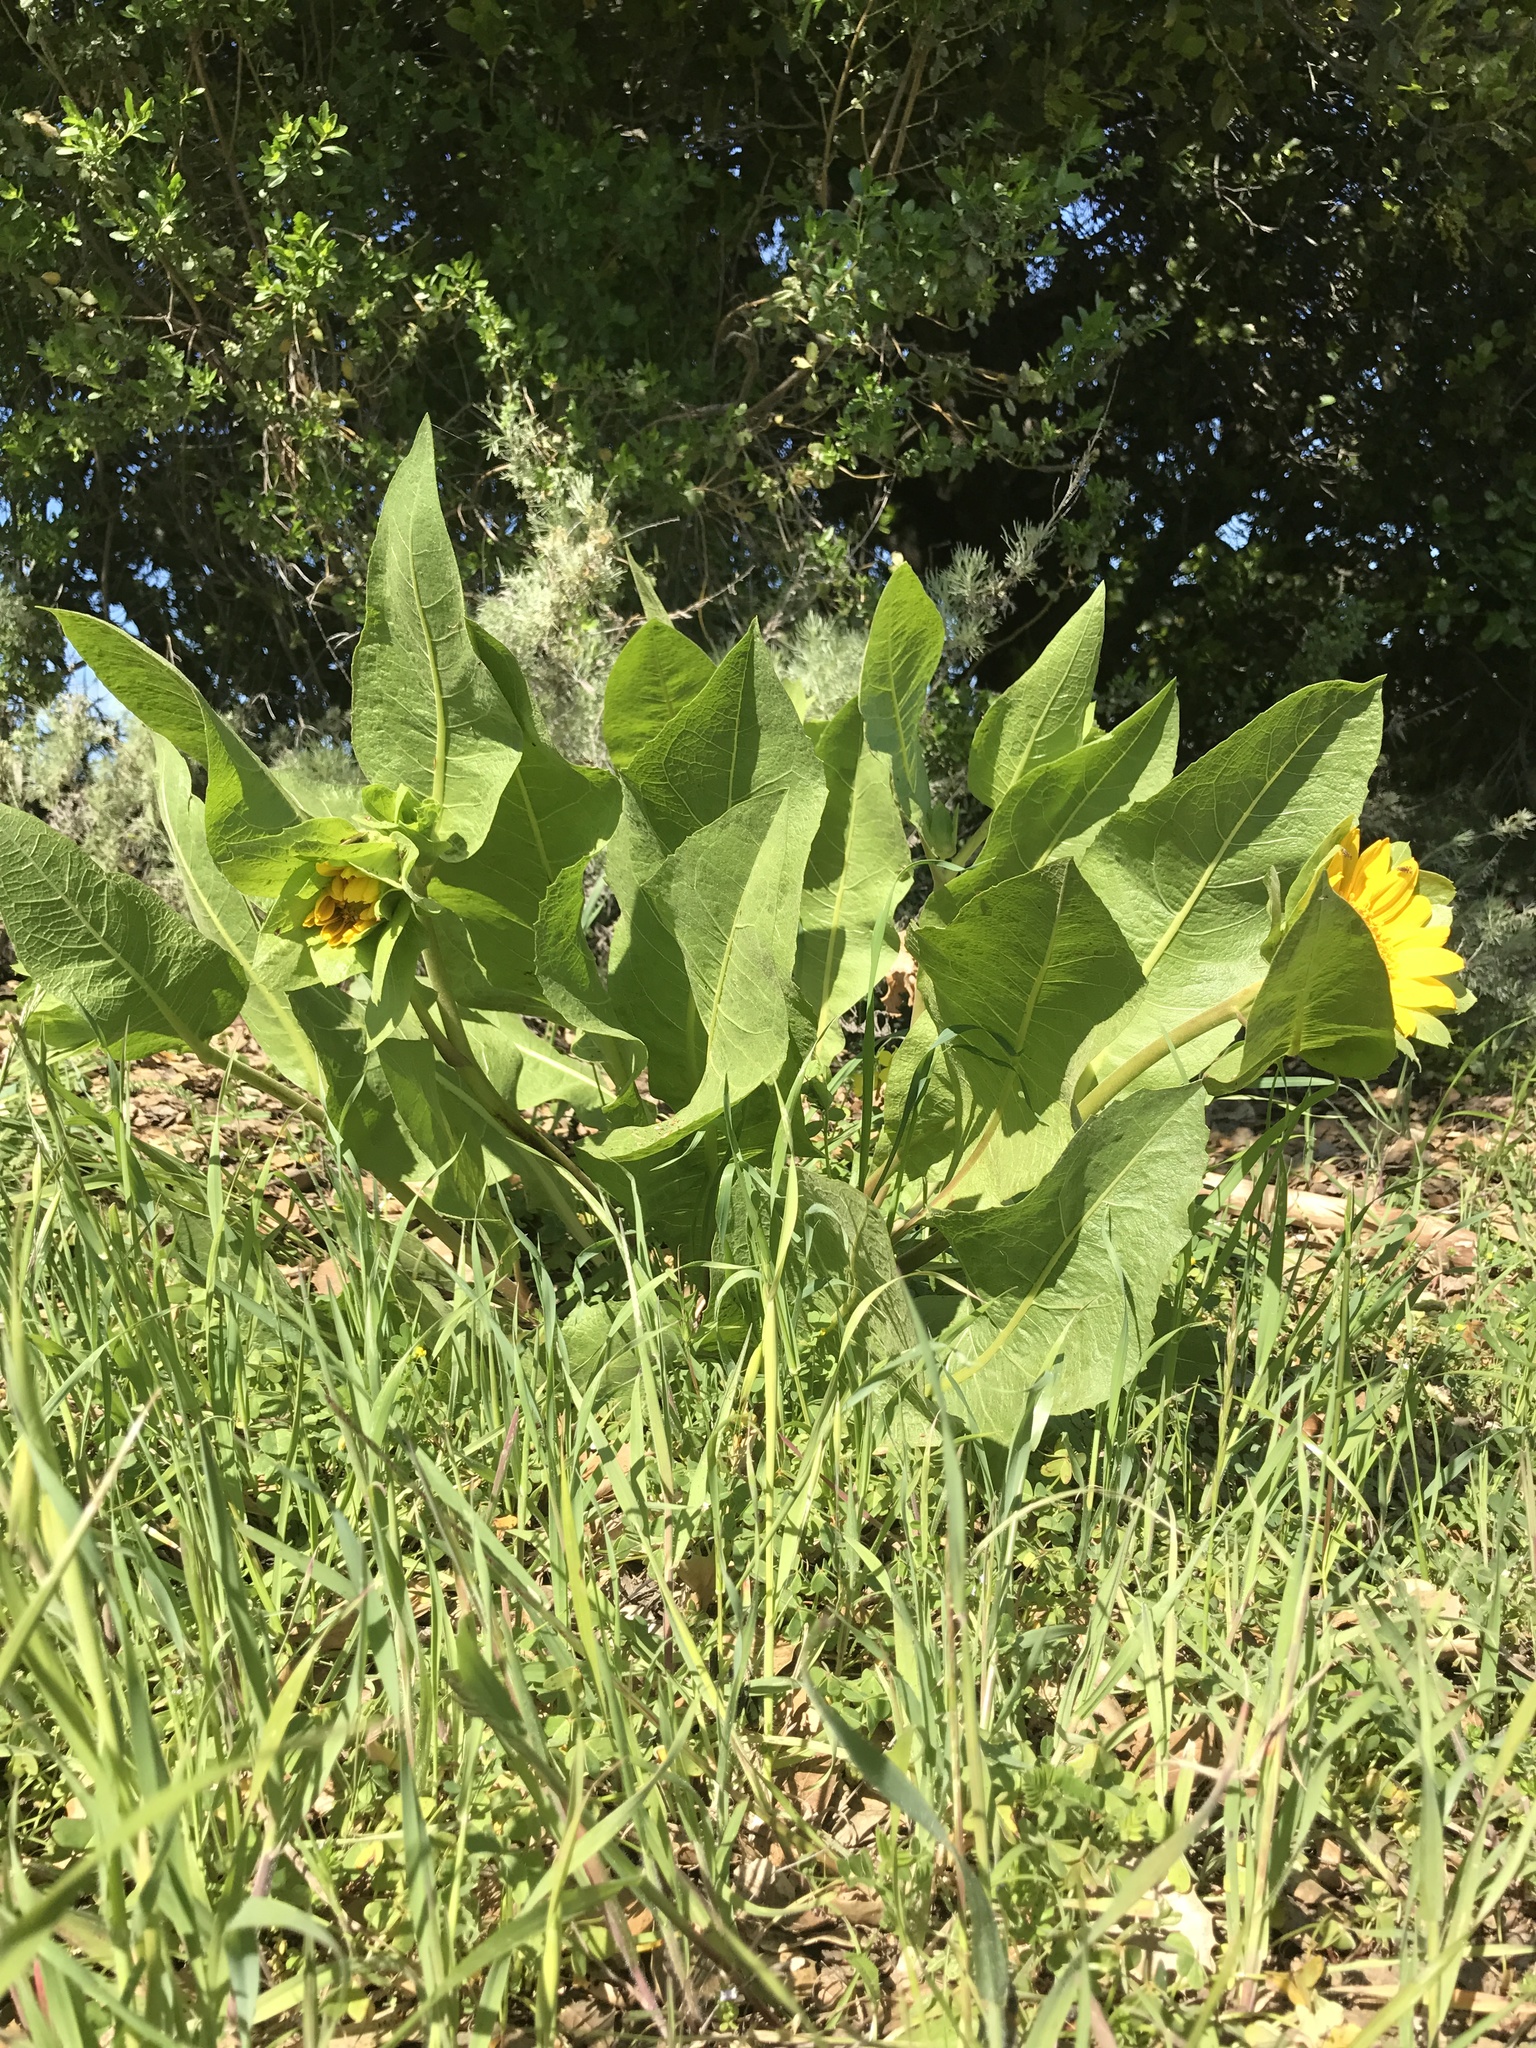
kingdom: Plantae
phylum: Tracheophyta
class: Magnoliopsida
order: Asterales
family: Asteraceae
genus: Wyethia
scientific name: Wyethia glabra
